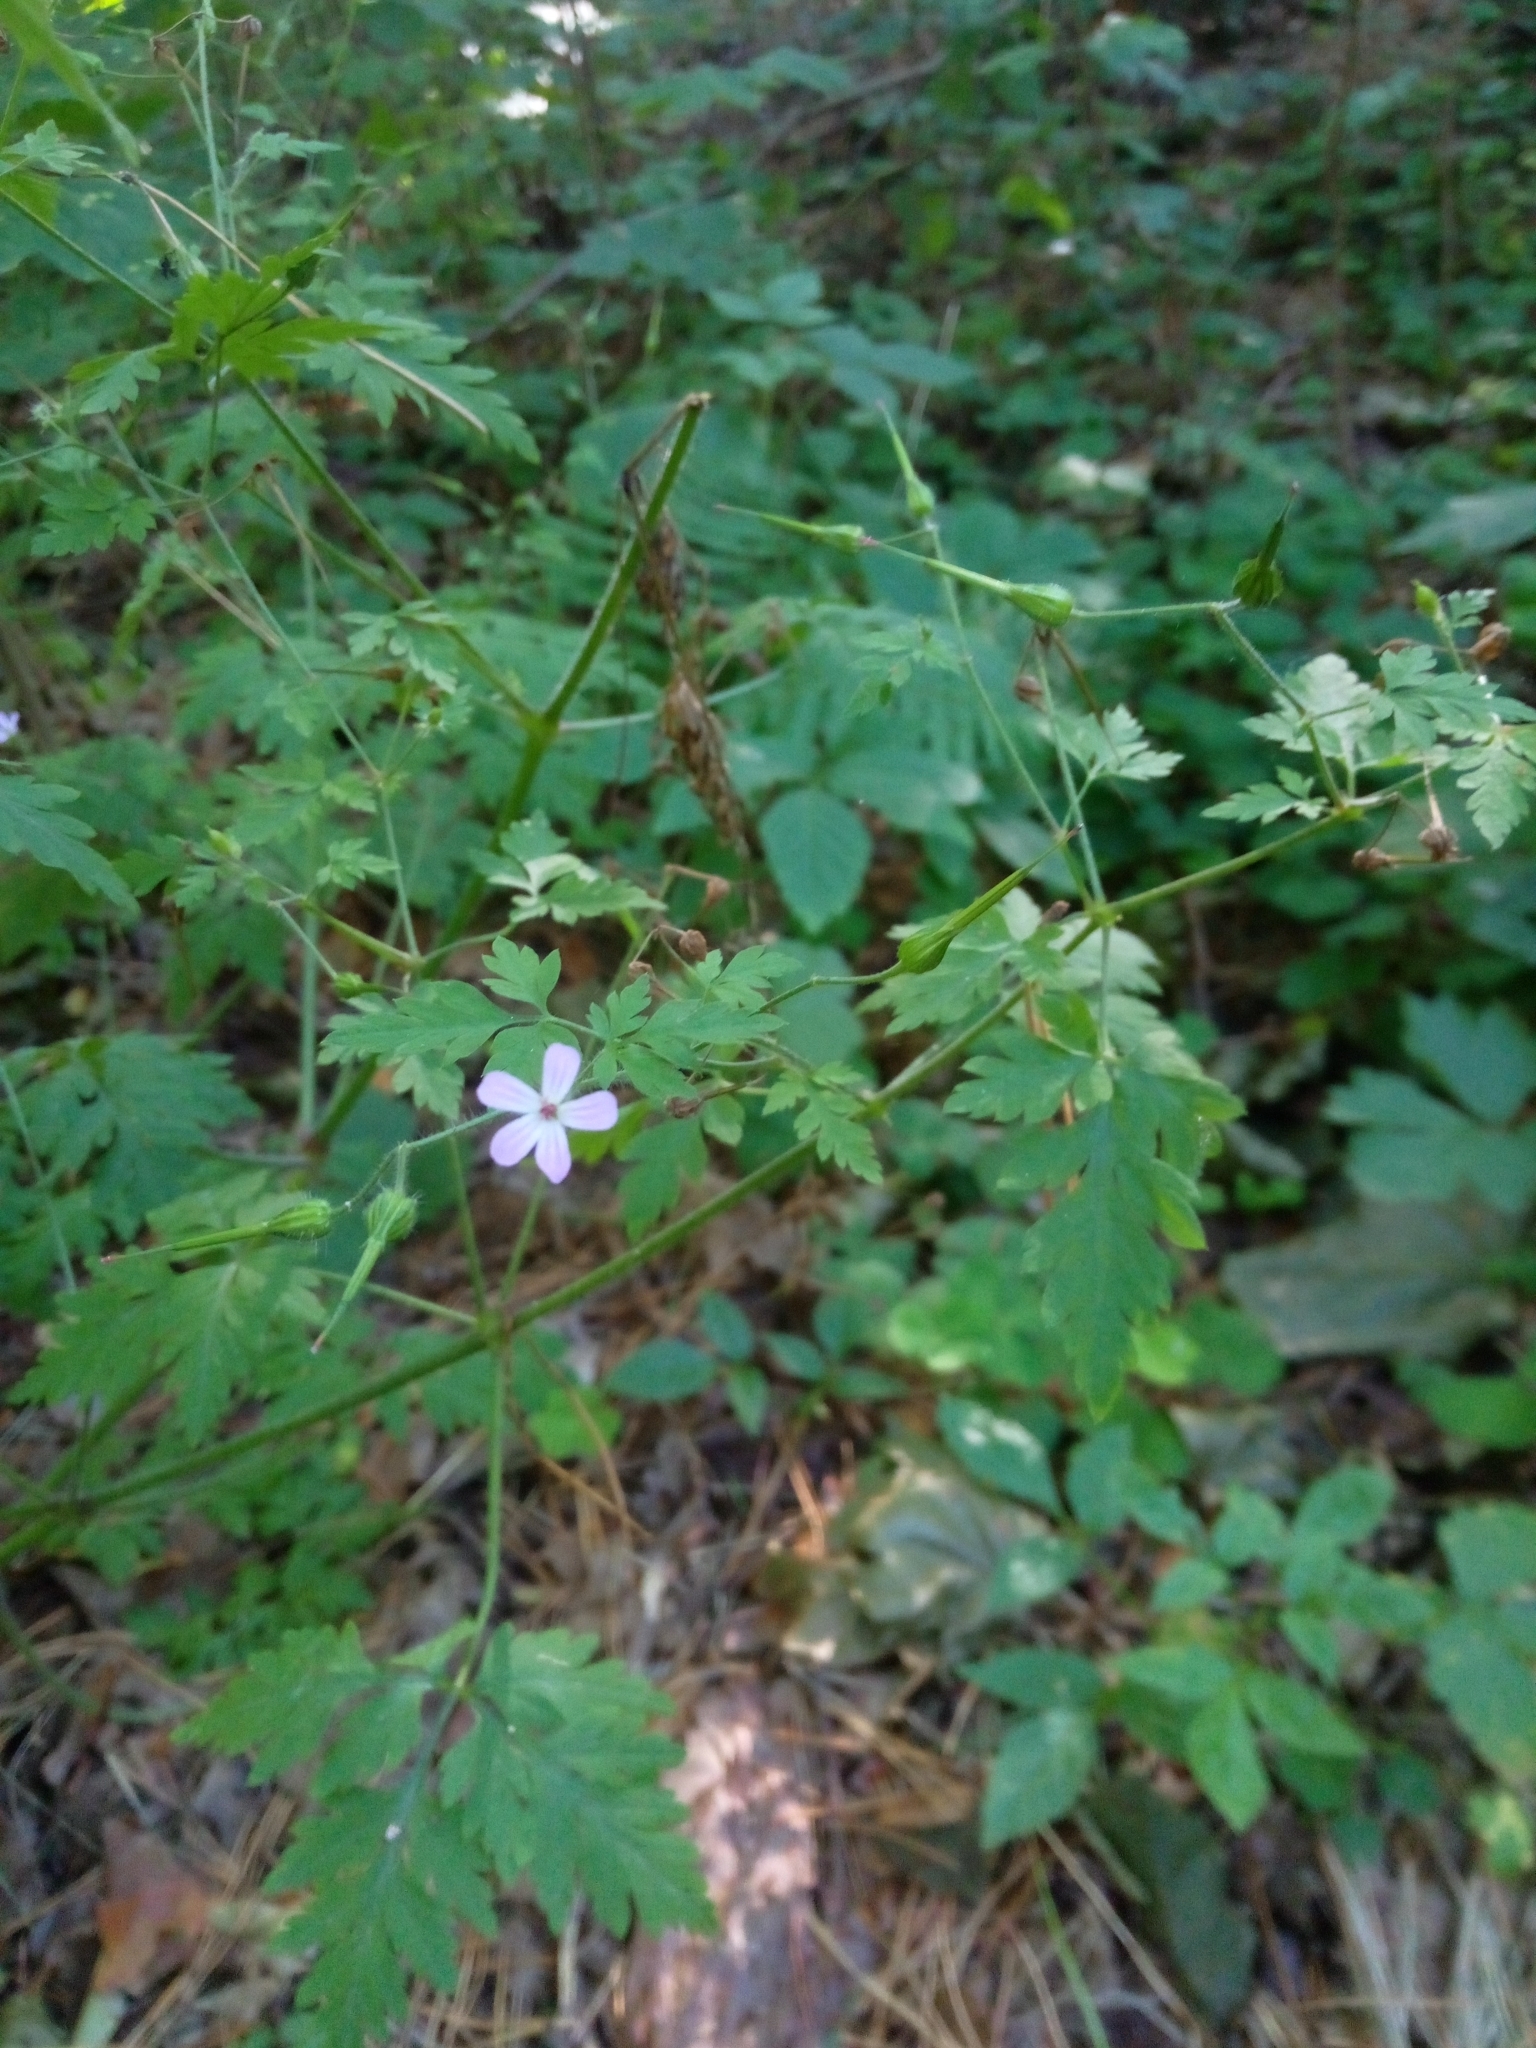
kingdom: Plantae
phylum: Tracheophyta
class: Magnoliopsida
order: Geraniales
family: Geraniaceae
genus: Geranium
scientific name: Geranium robertianum
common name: Herb-robert
